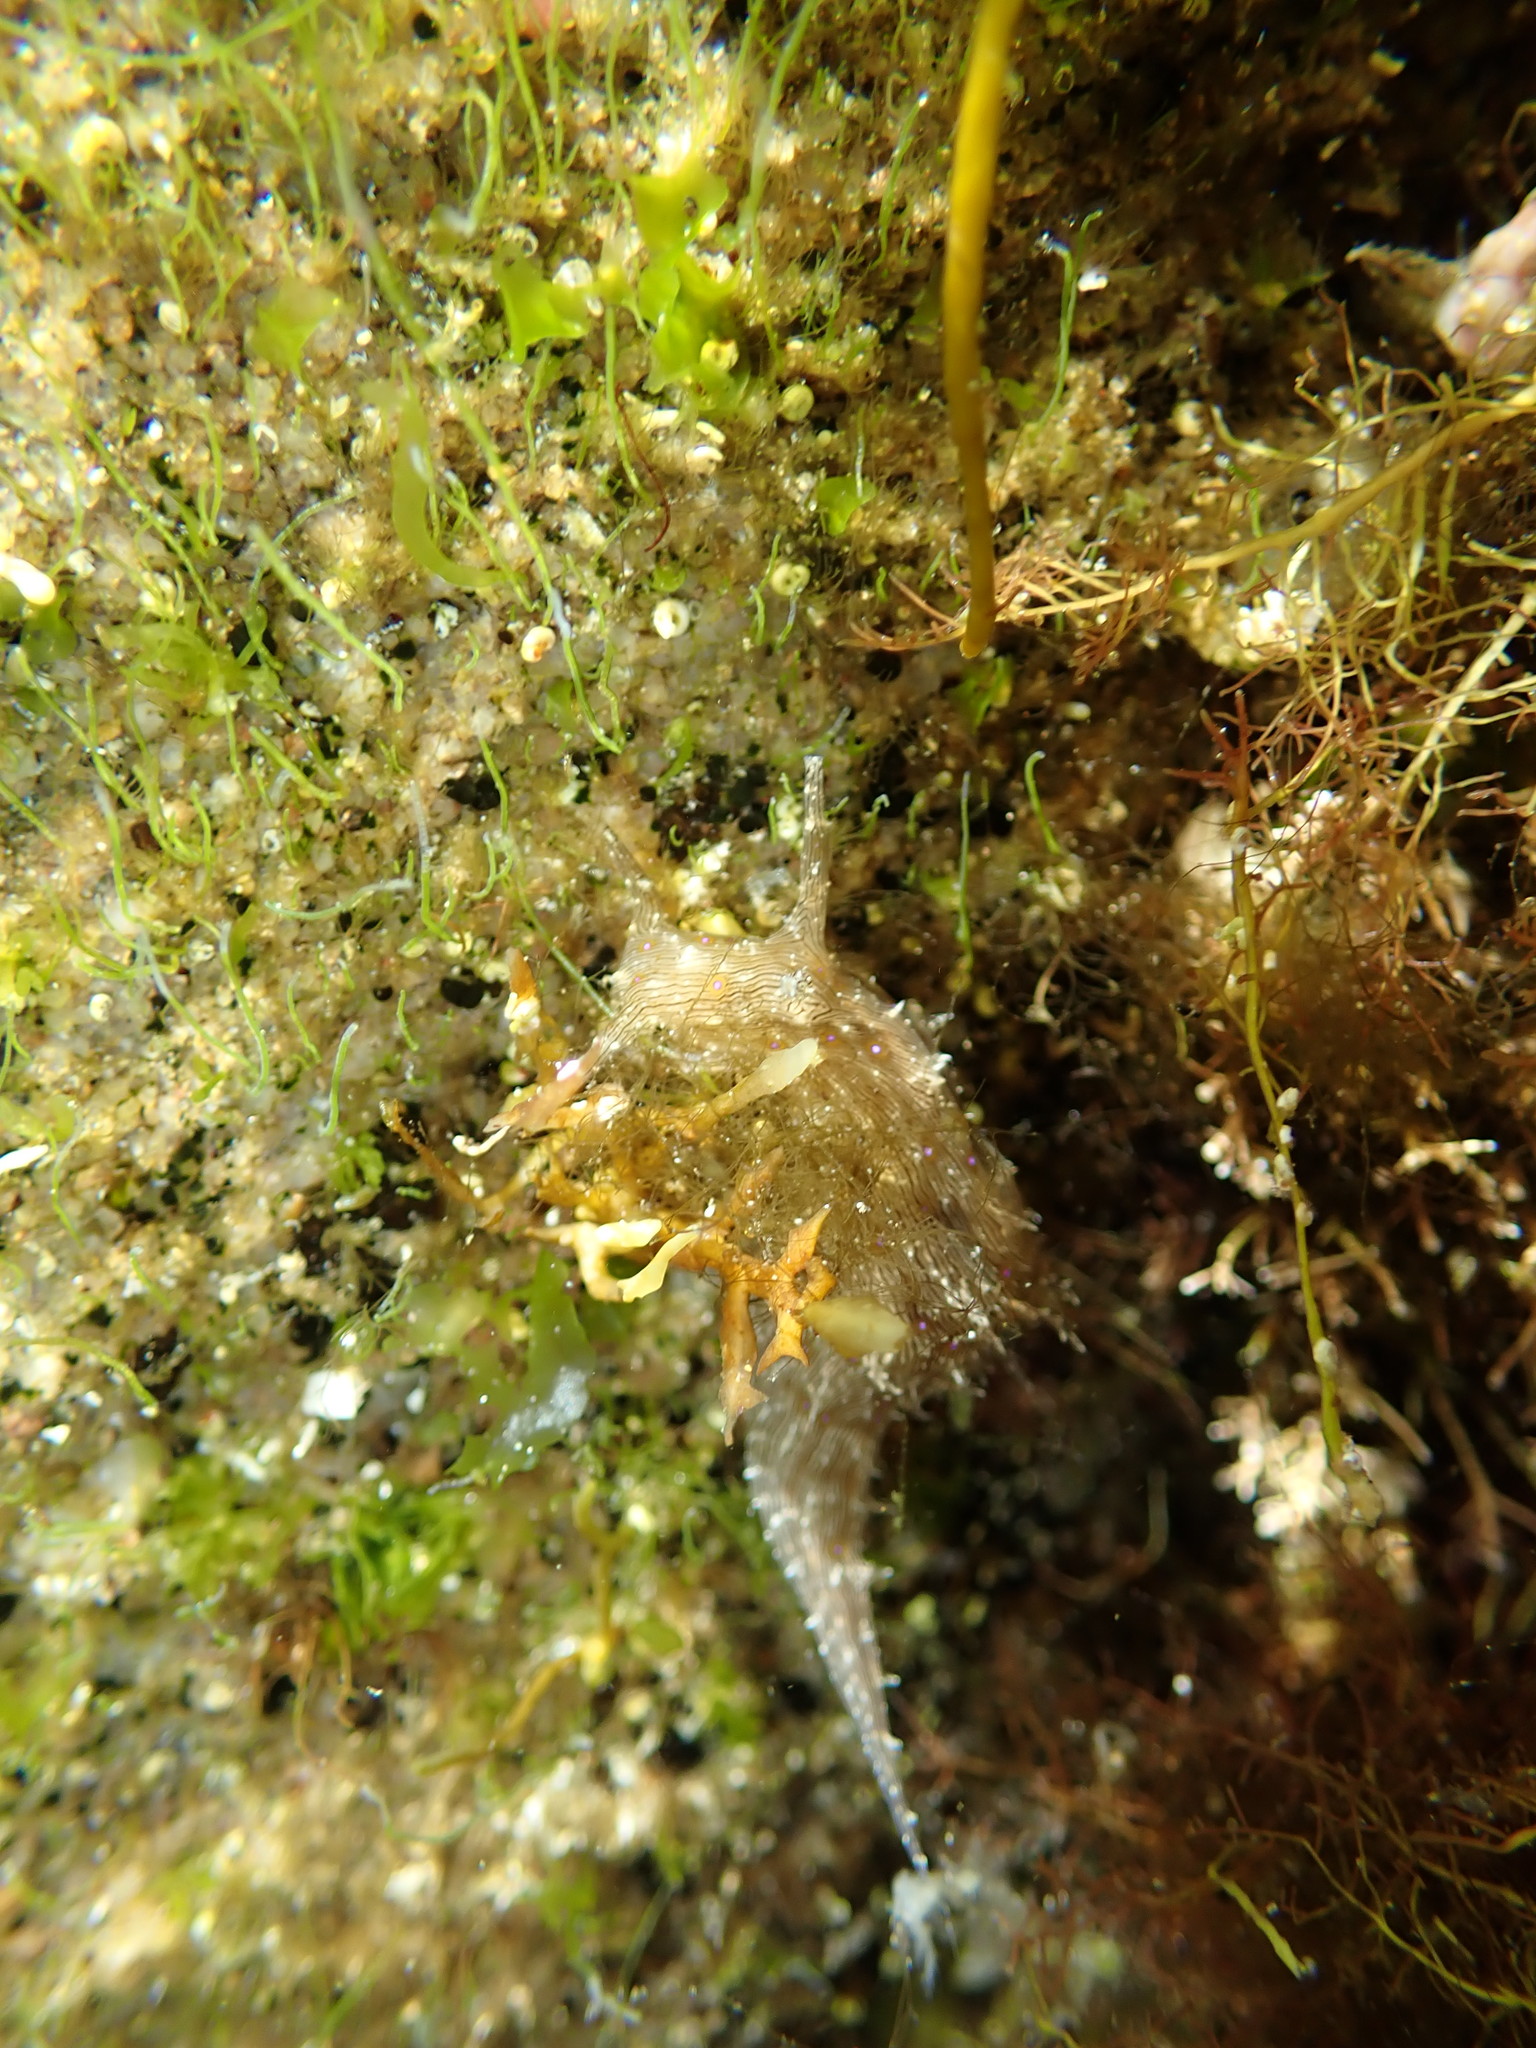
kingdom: Animalia
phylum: Mollusca
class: Gastropoda
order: Aplysiida
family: Aplysiidae
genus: Stylocheilus
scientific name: Stylocheilus striatus
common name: Striated seahare
